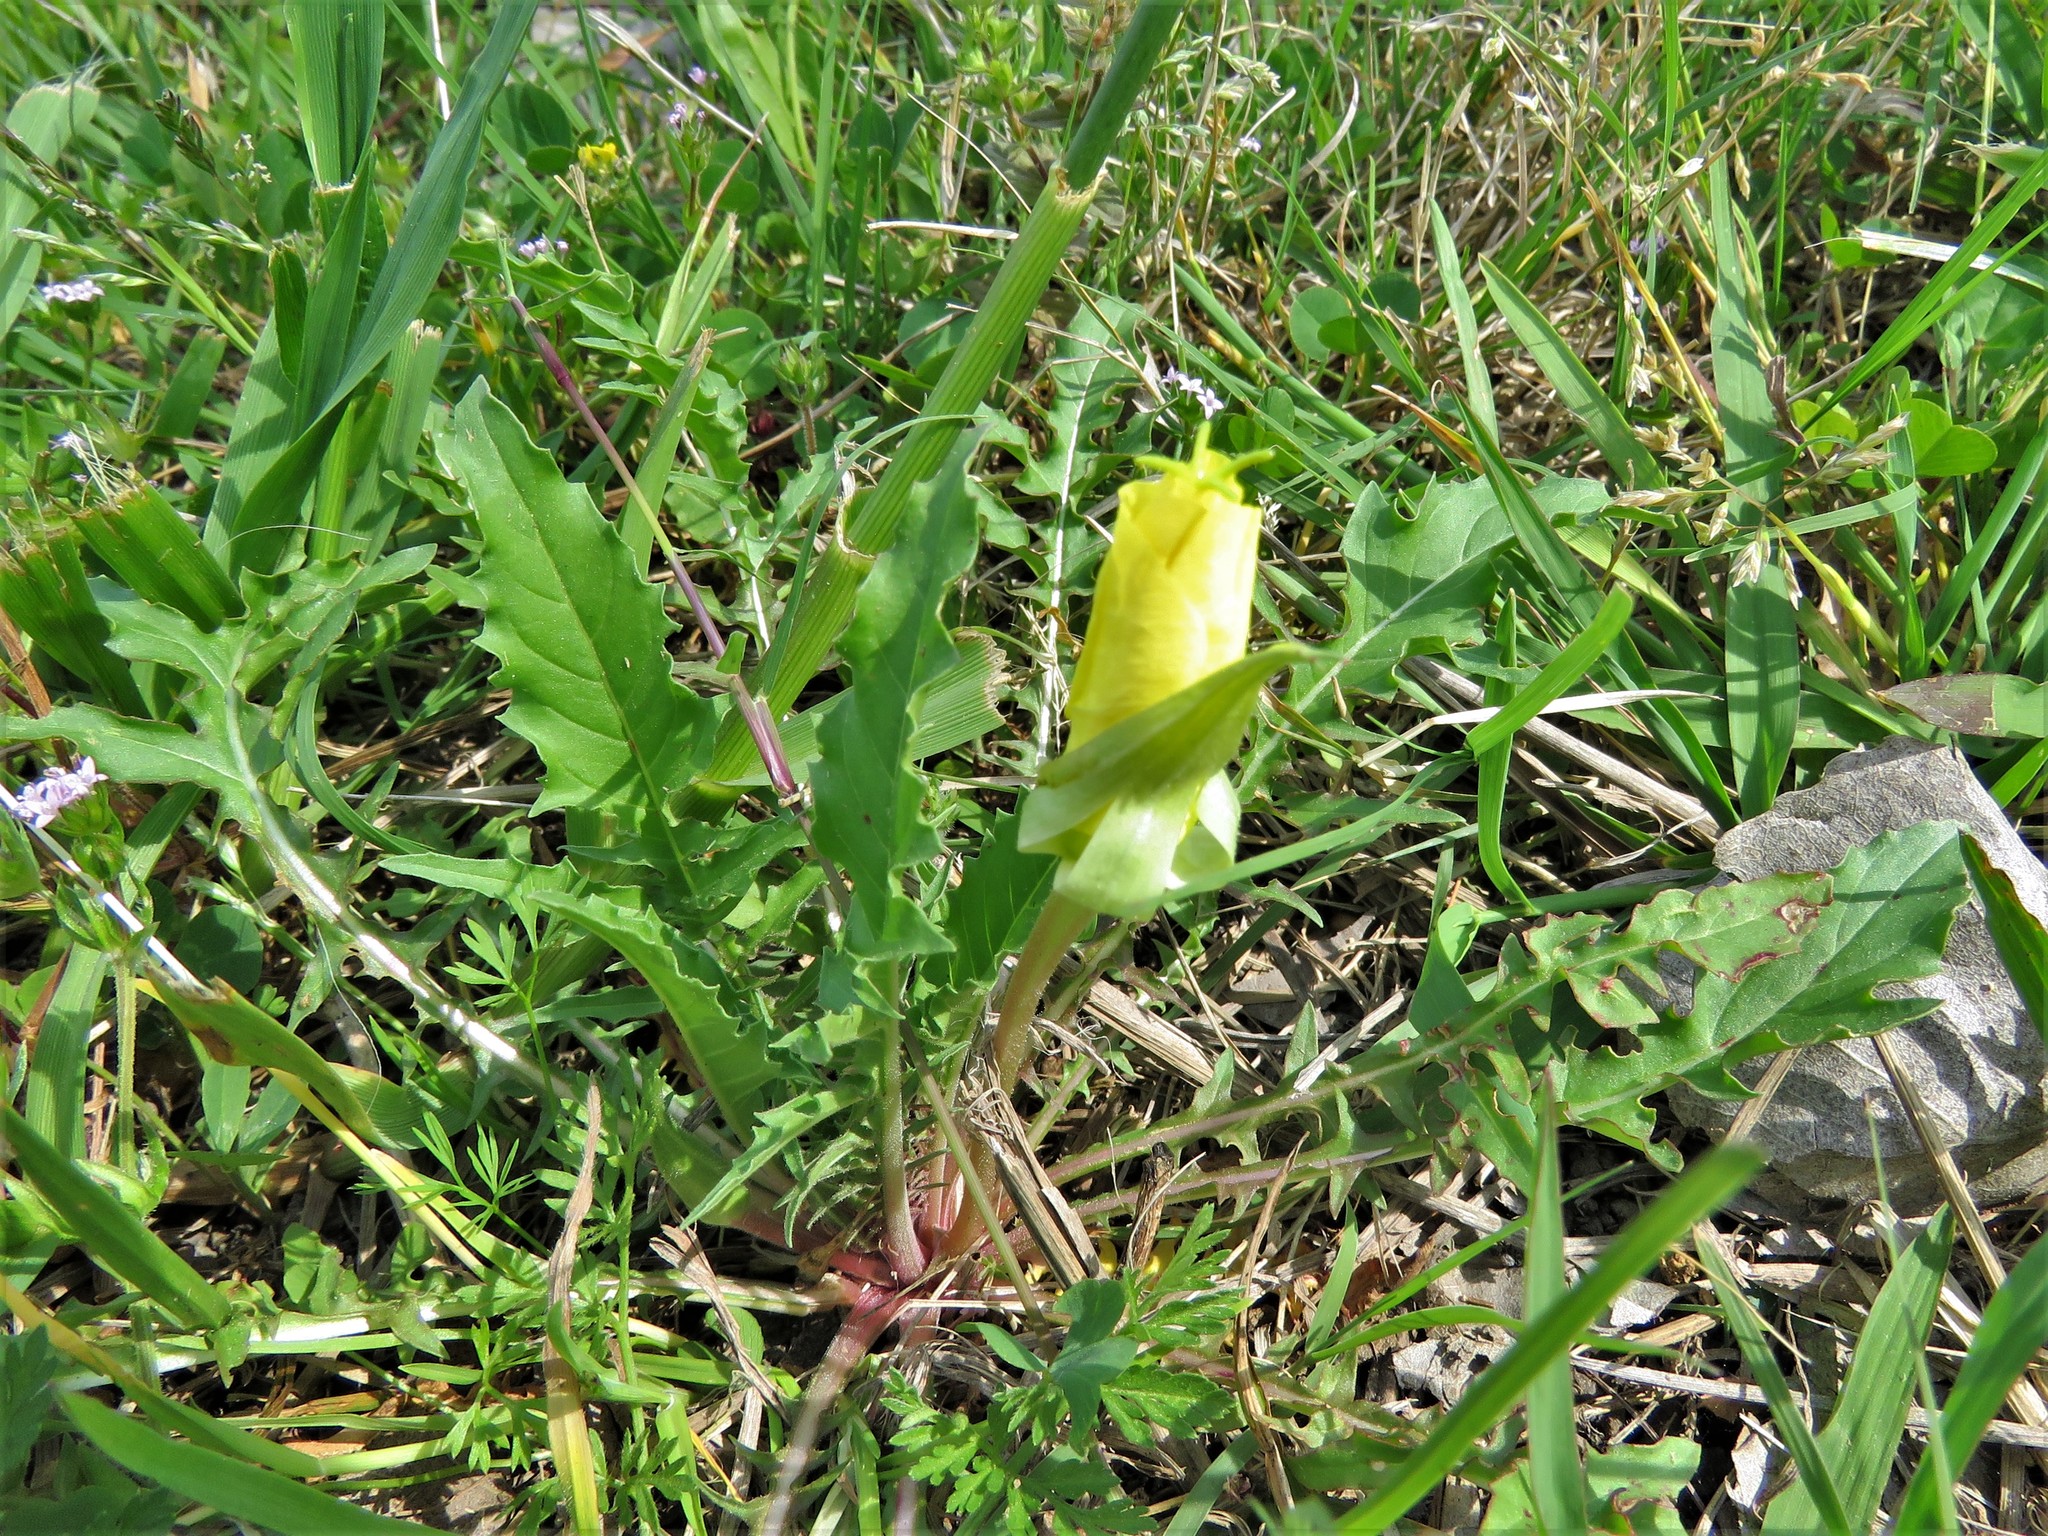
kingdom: Plantae
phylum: Tracheophyta
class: Magnoliopsida
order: Myrtales
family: Onagraceae
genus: Oenothera
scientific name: Oenothera triloba
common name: Sessile evening-primrose
